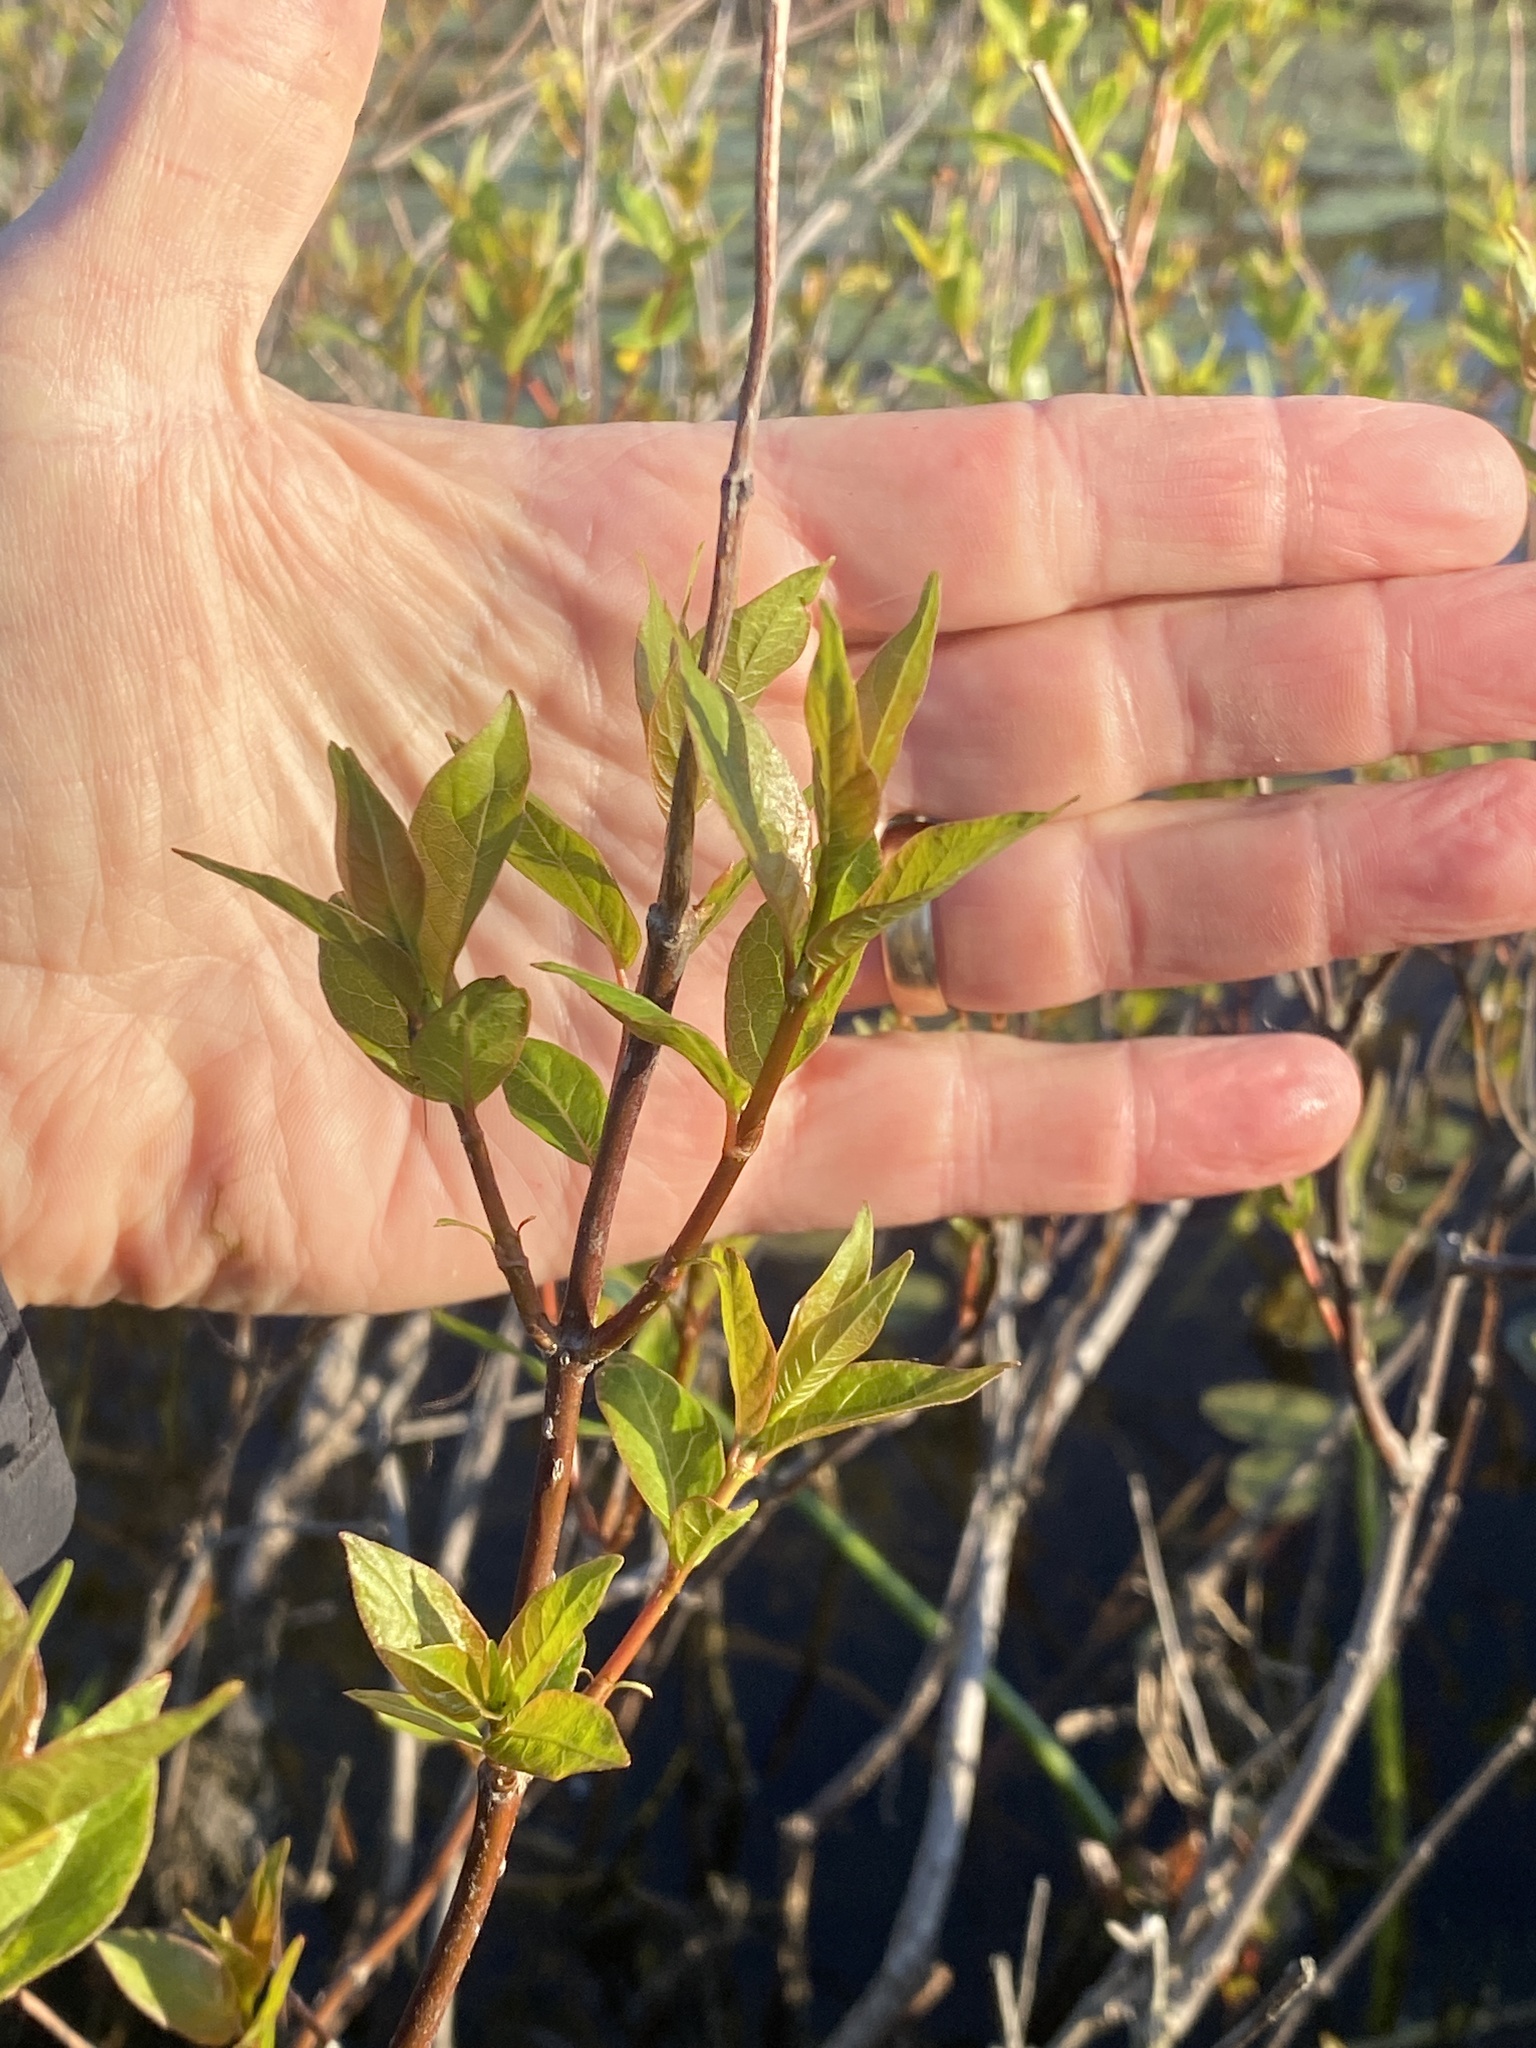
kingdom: Plantae
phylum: Tracheophyta
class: Magnoliopsida
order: Gentianales
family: Rubiaceae
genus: Cephalanthus
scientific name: Cephalanthus occidentalis
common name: Button-willow
